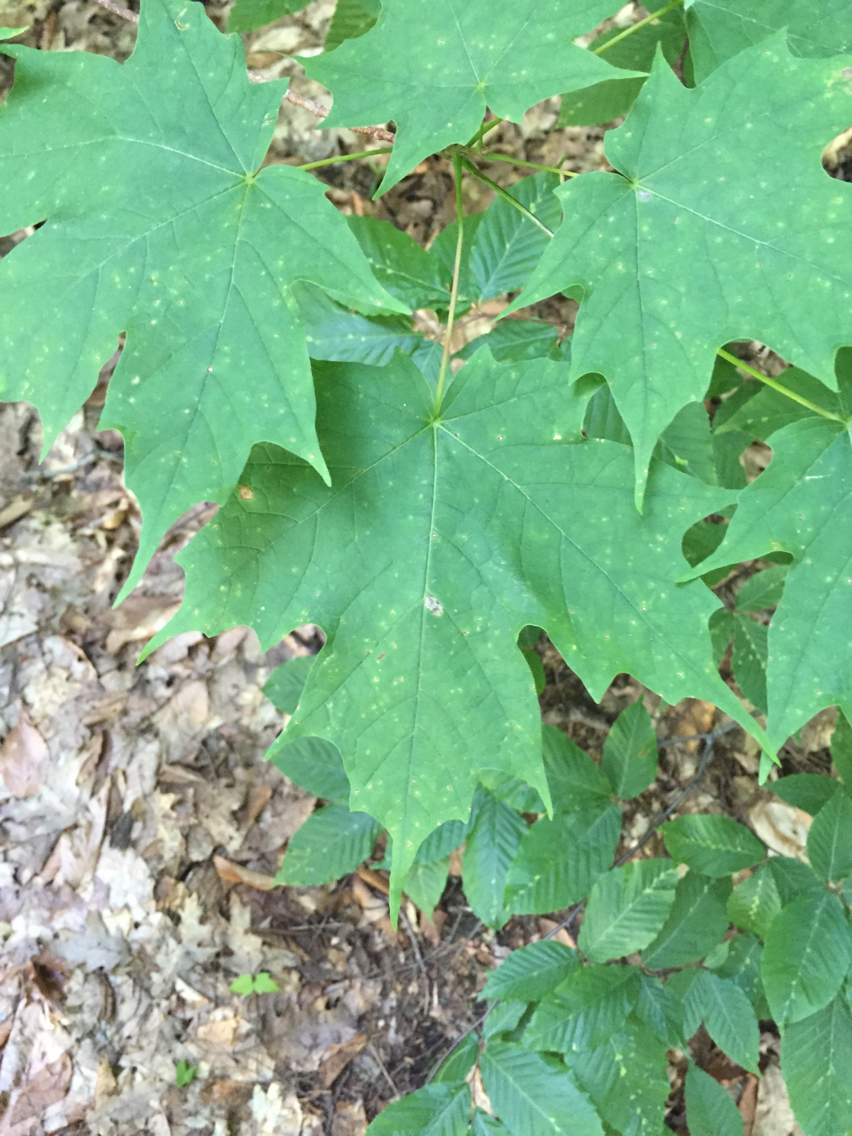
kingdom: Plantae
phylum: Tracheophyta
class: Magnoliopsida
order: Sapindales
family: Sapindaceae
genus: Acer
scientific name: Acer saccharum
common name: Sugar maple
